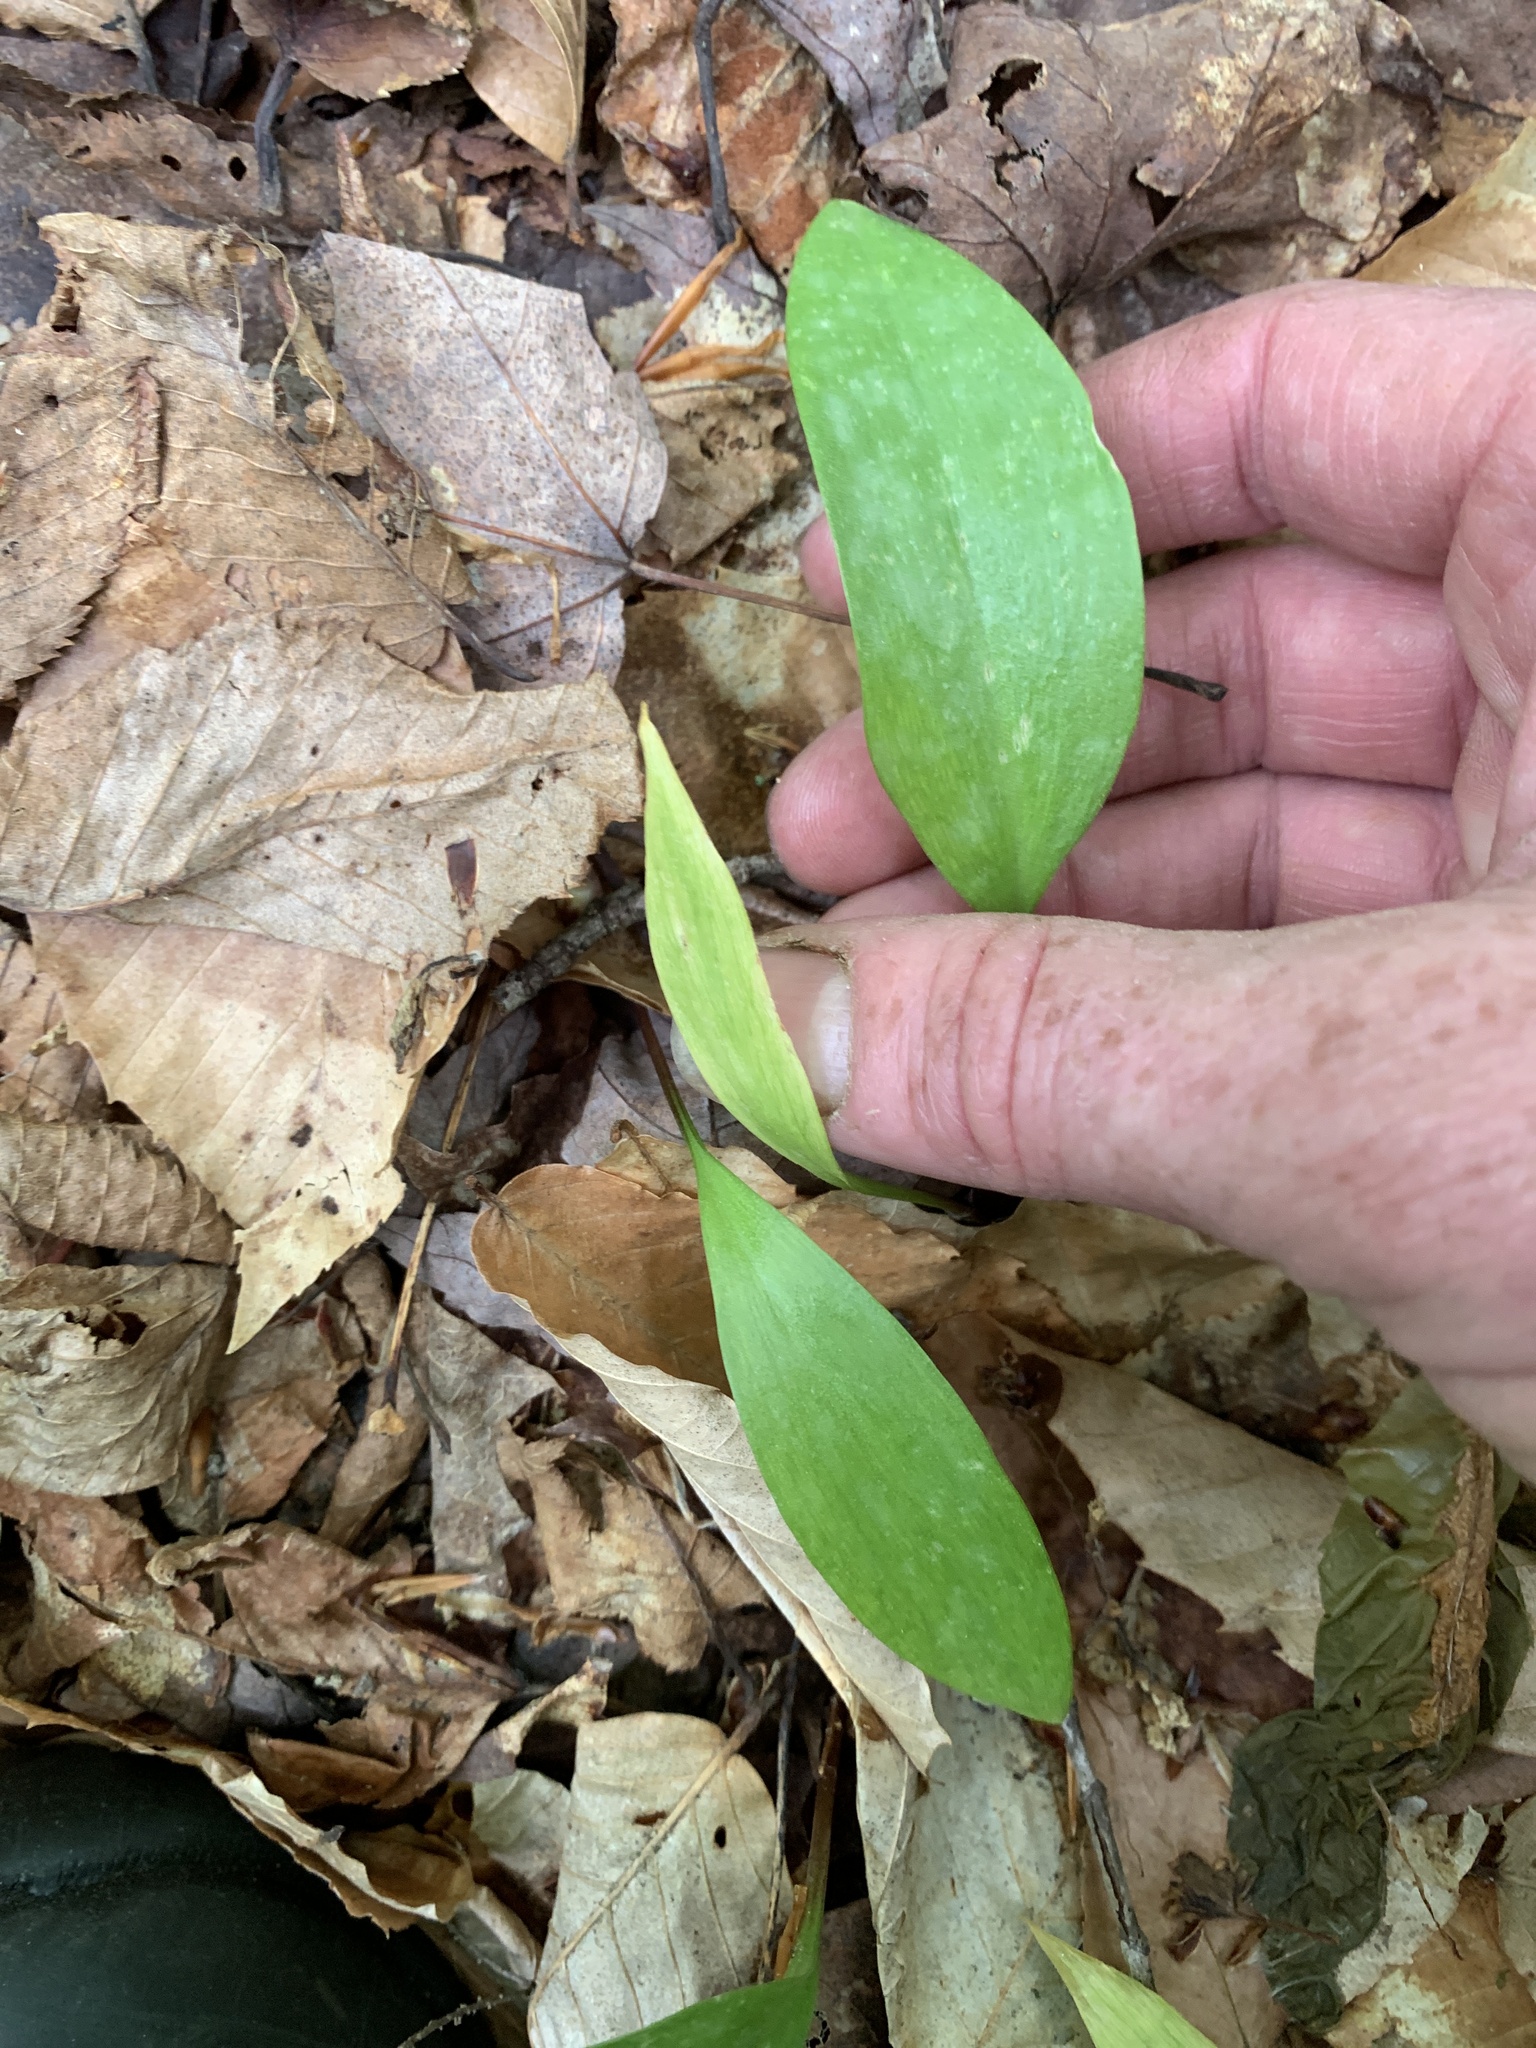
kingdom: Plantae
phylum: Tracheophyta
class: Liliopsida
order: Liliales
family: Liliaceae
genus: Erythronium
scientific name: Erythronium americanum
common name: Yellow adder's-tongue
